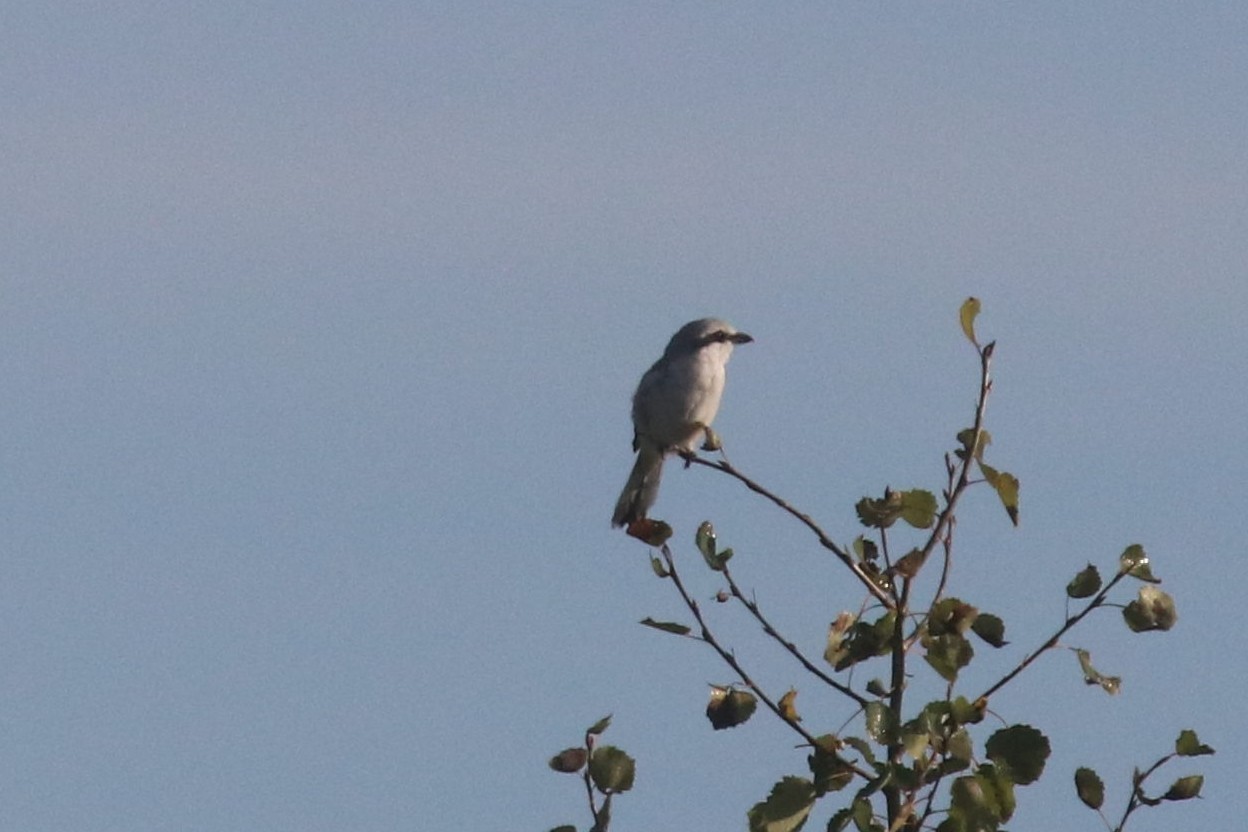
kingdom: Animalia
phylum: Chordata
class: Aves
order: Passeriformes
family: Laniidae
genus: Lanius
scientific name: Lanius excubitor
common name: Great grey shrike
